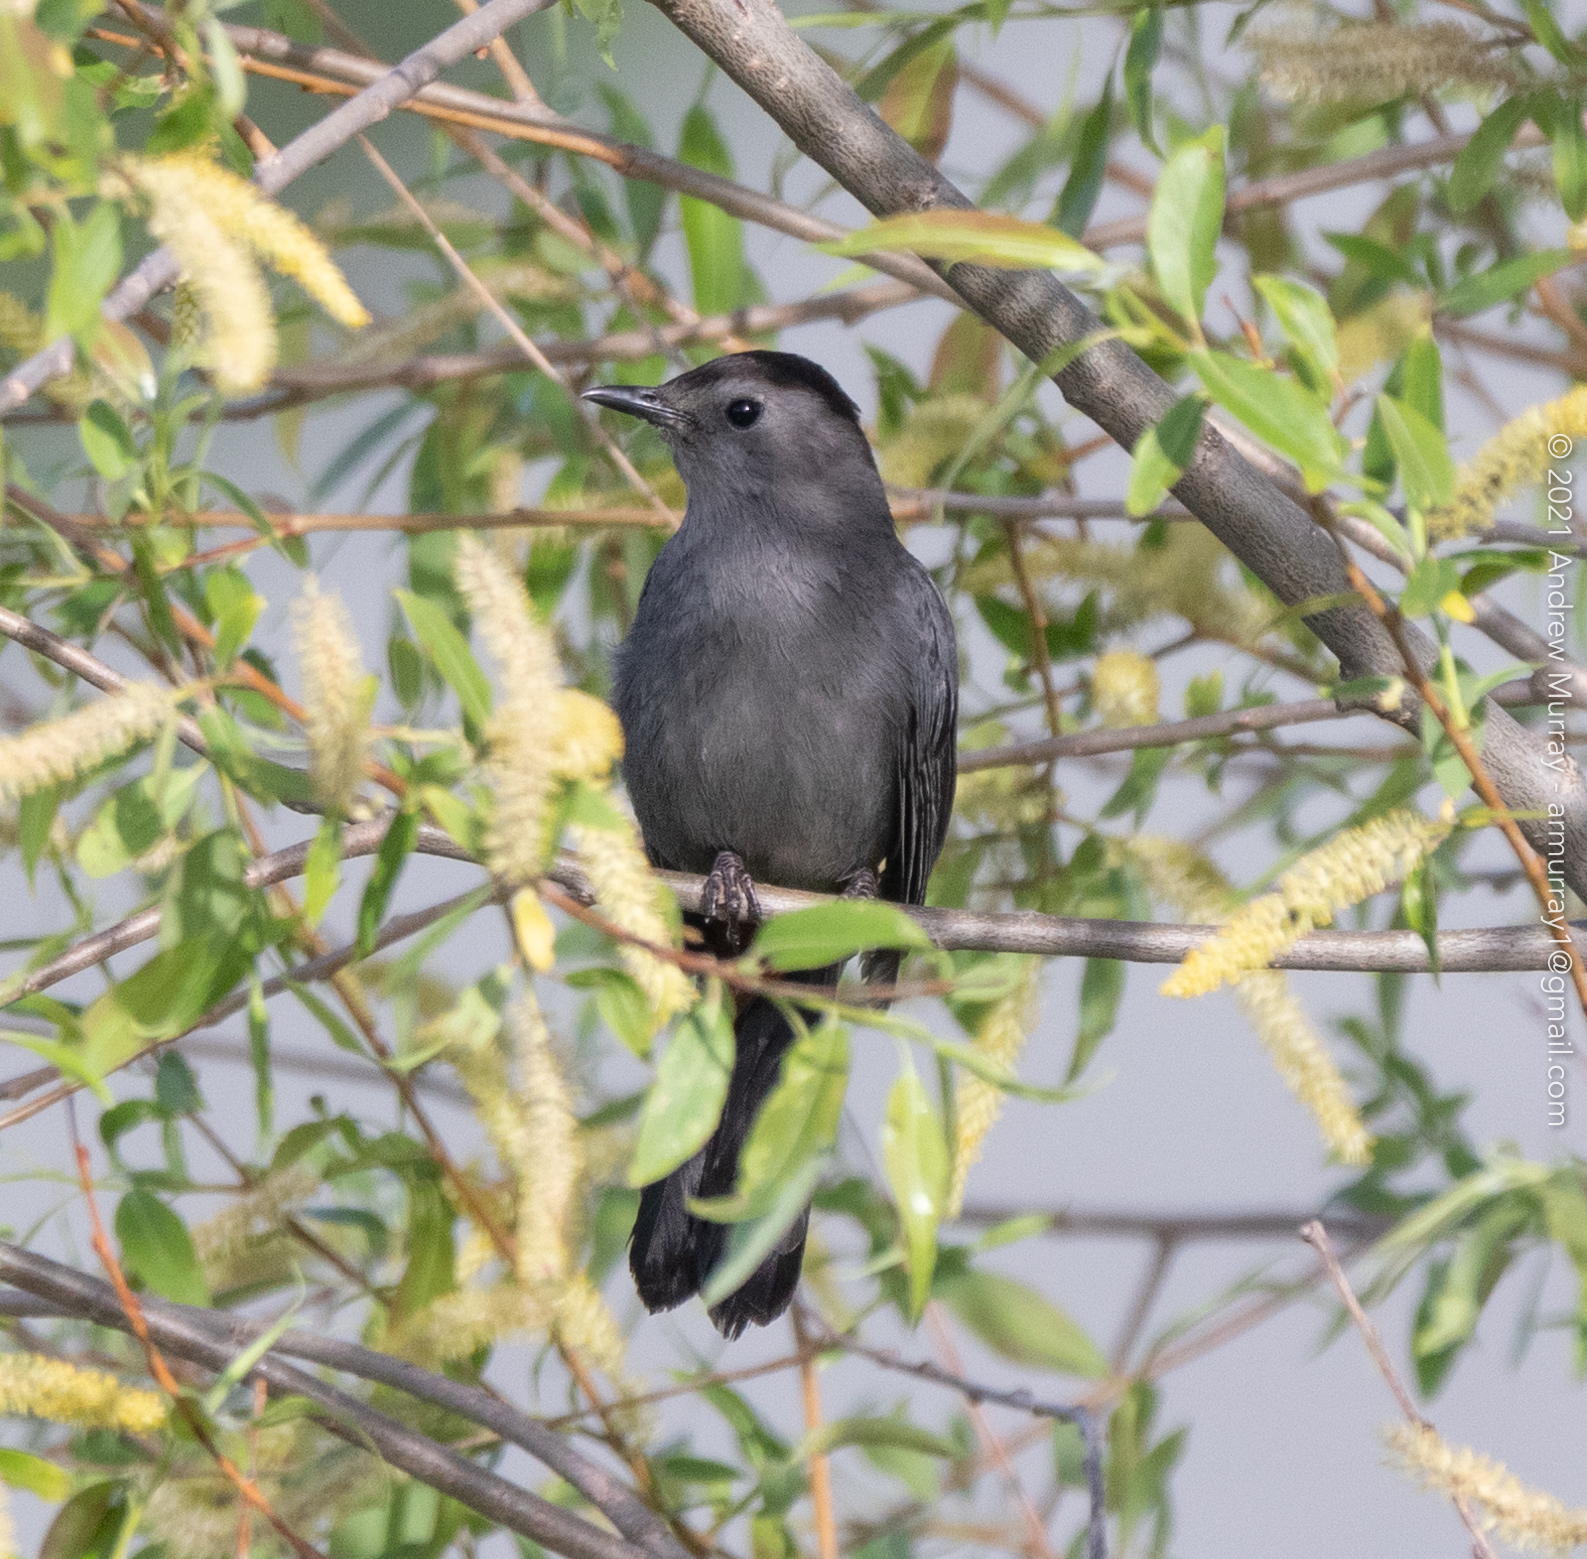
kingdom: Animalia
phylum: Chordata
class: Aves
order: Passeriformes
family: Mimidae
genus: Dumetella
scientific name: Dumetella carolinensis
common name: Gray catbird
